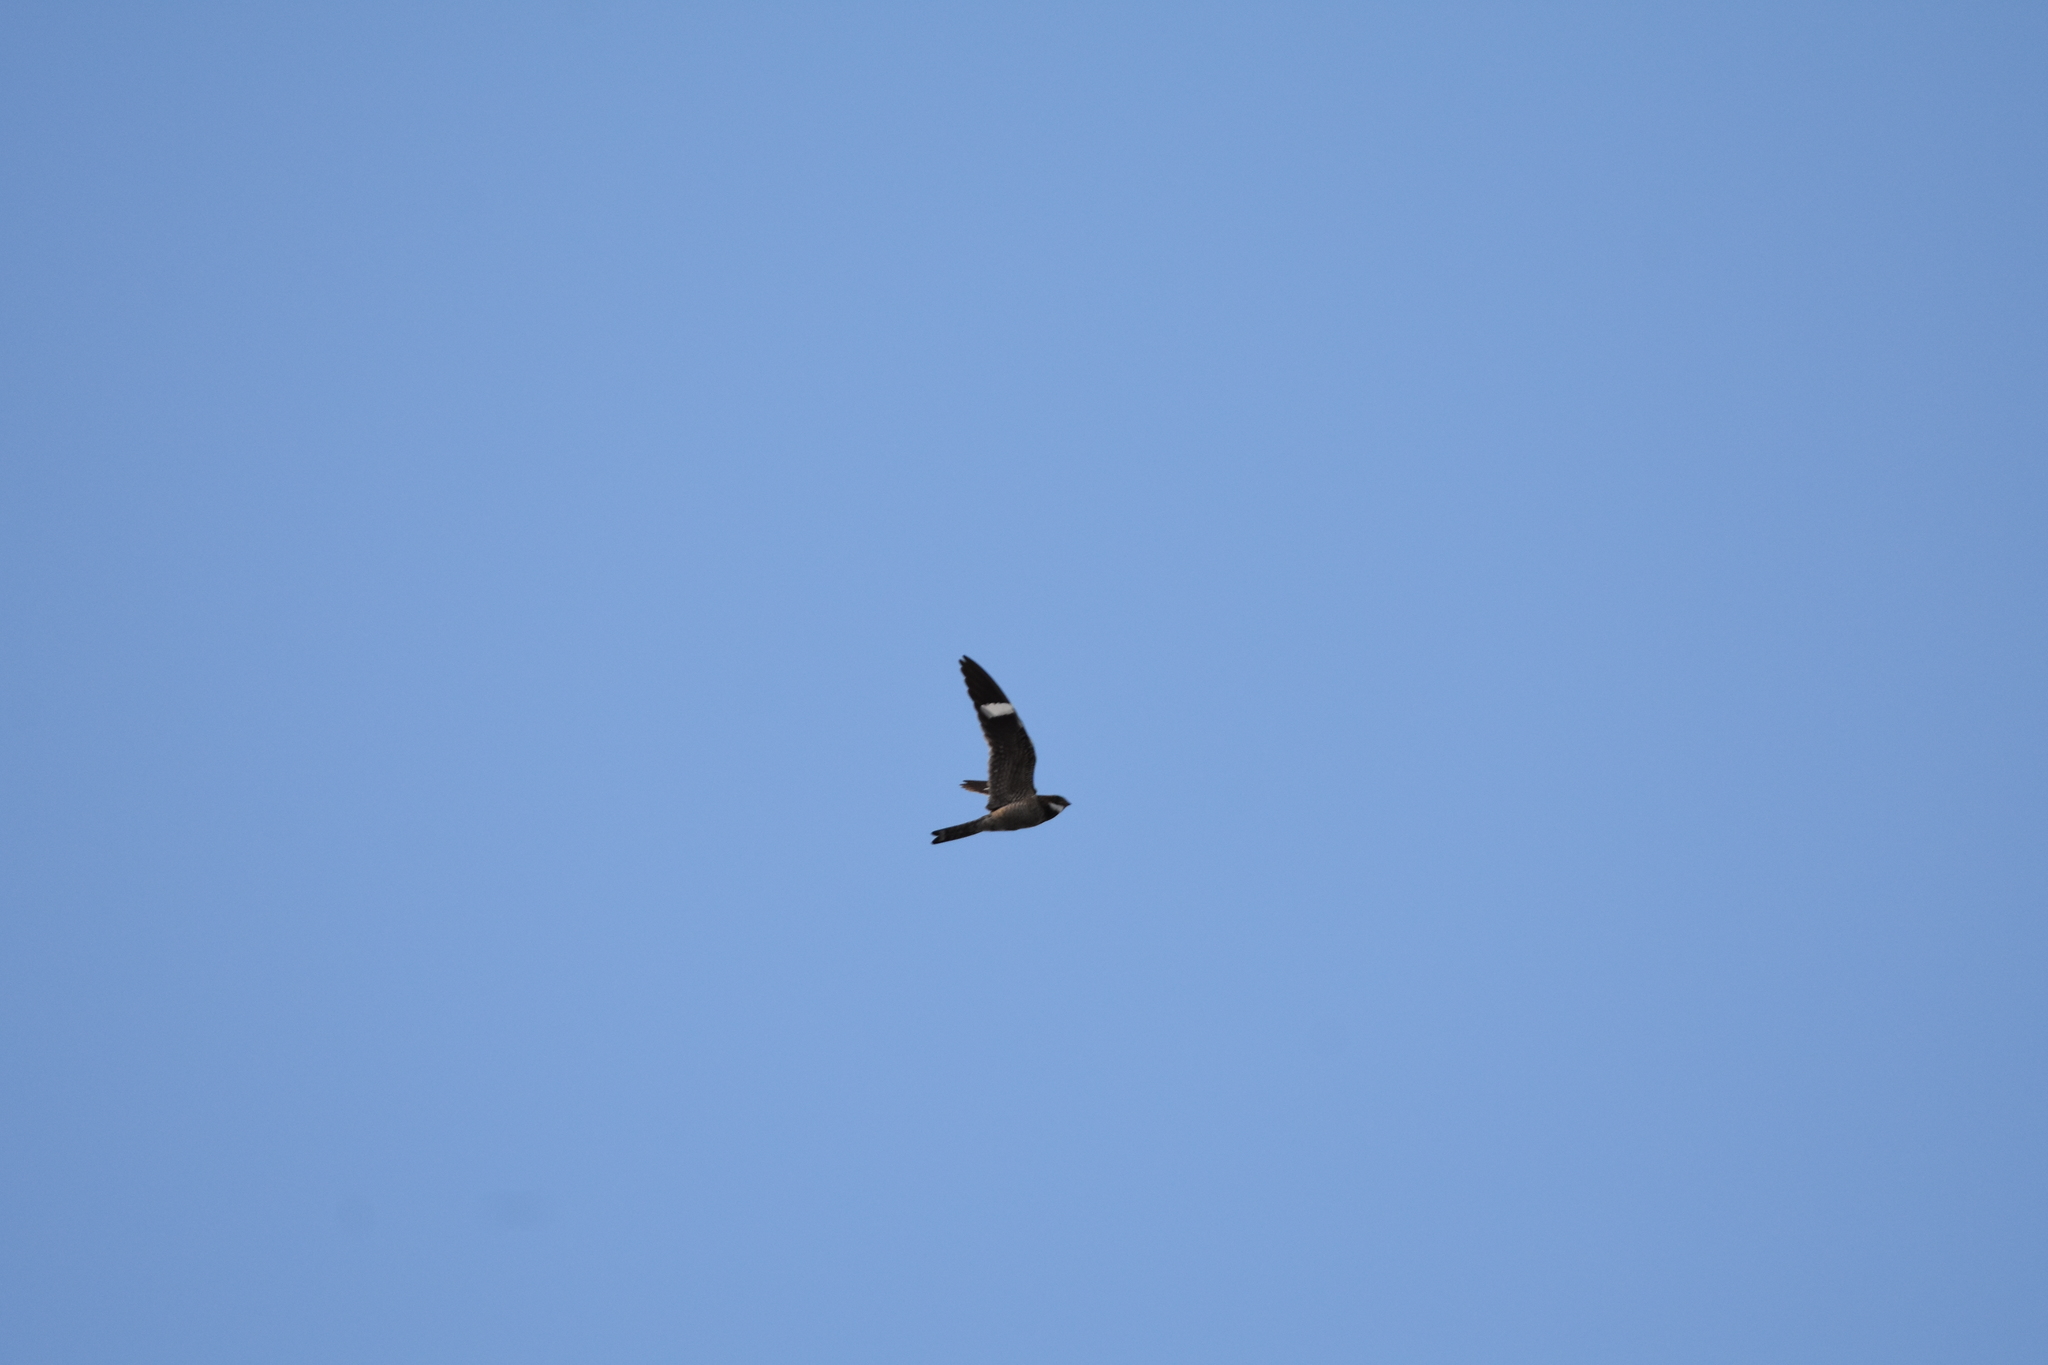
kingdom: Animalia
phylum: Chordata
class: Aves
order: Caprimulgiformes
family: Caprimulgidae
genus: Chordeiles
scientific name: Chordeiles minor
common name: Common nighthawk
